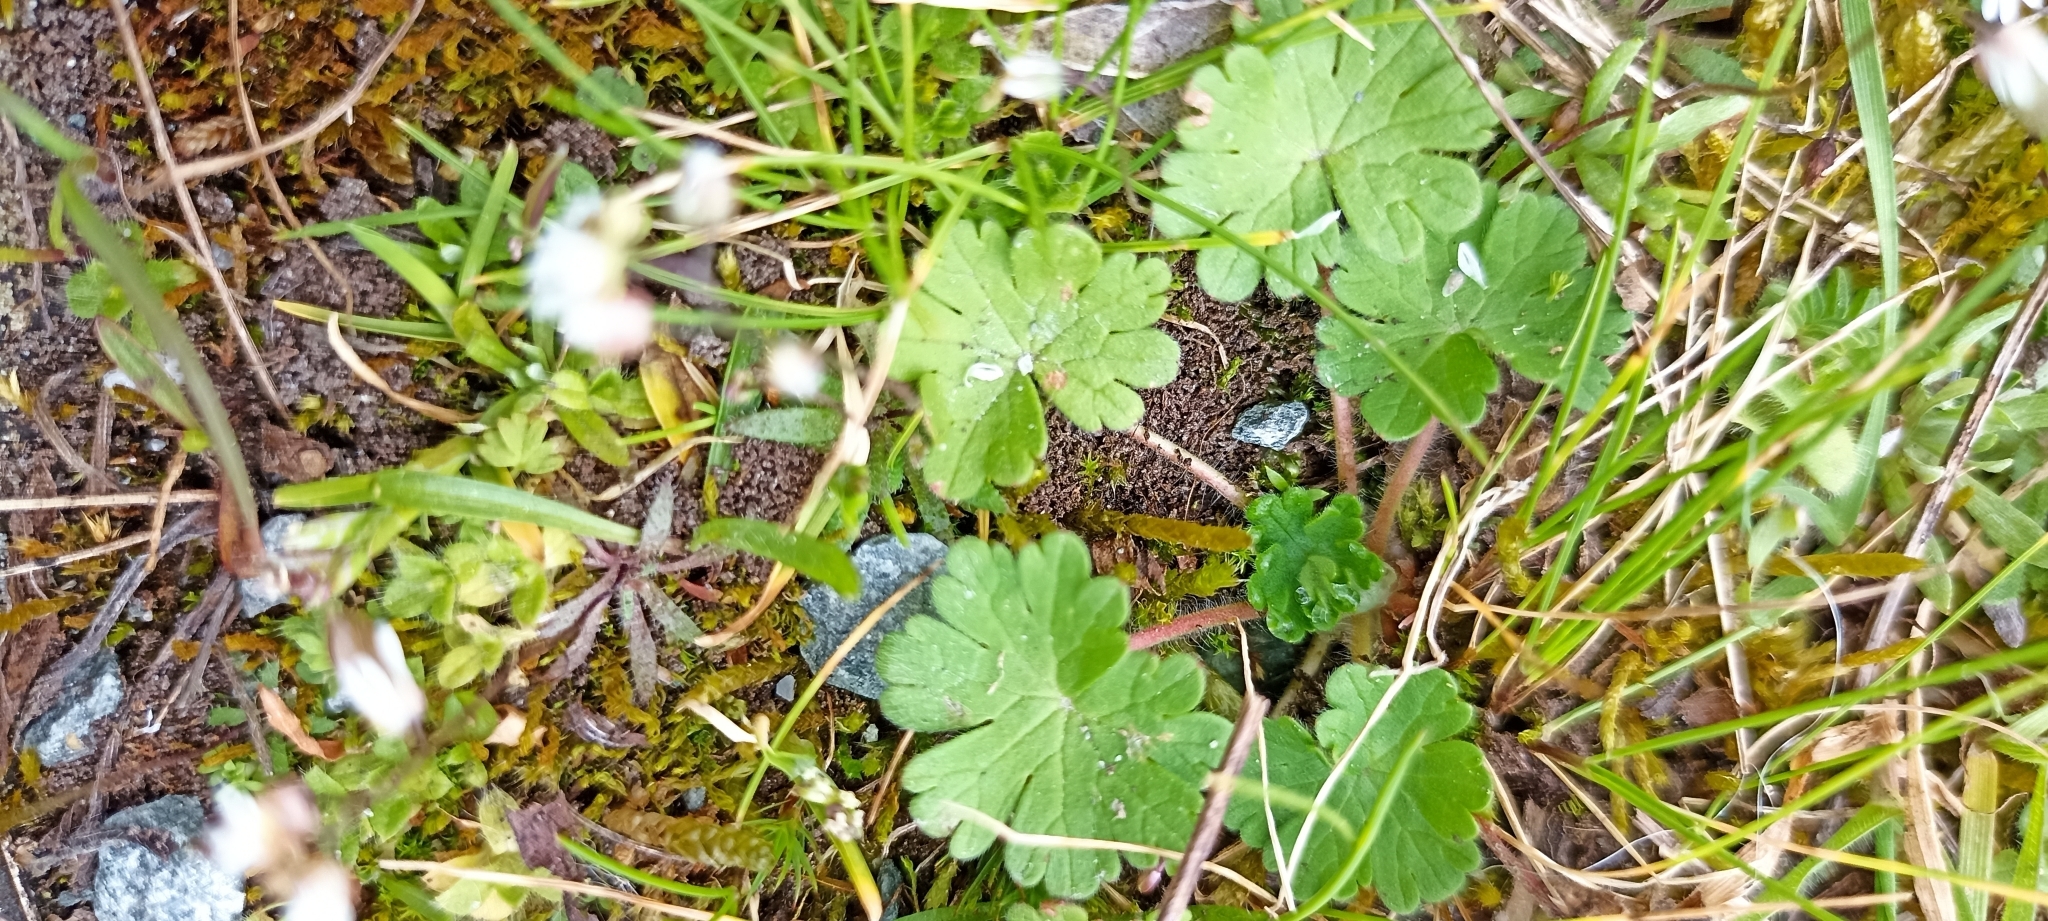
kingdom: Plantae
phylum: Tracheophyta
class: Magnoliopsida
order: Geraniales
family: Geraniaceae
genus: Geranium
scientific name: Geranium molle
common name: Dove's-foot crane's-bill
